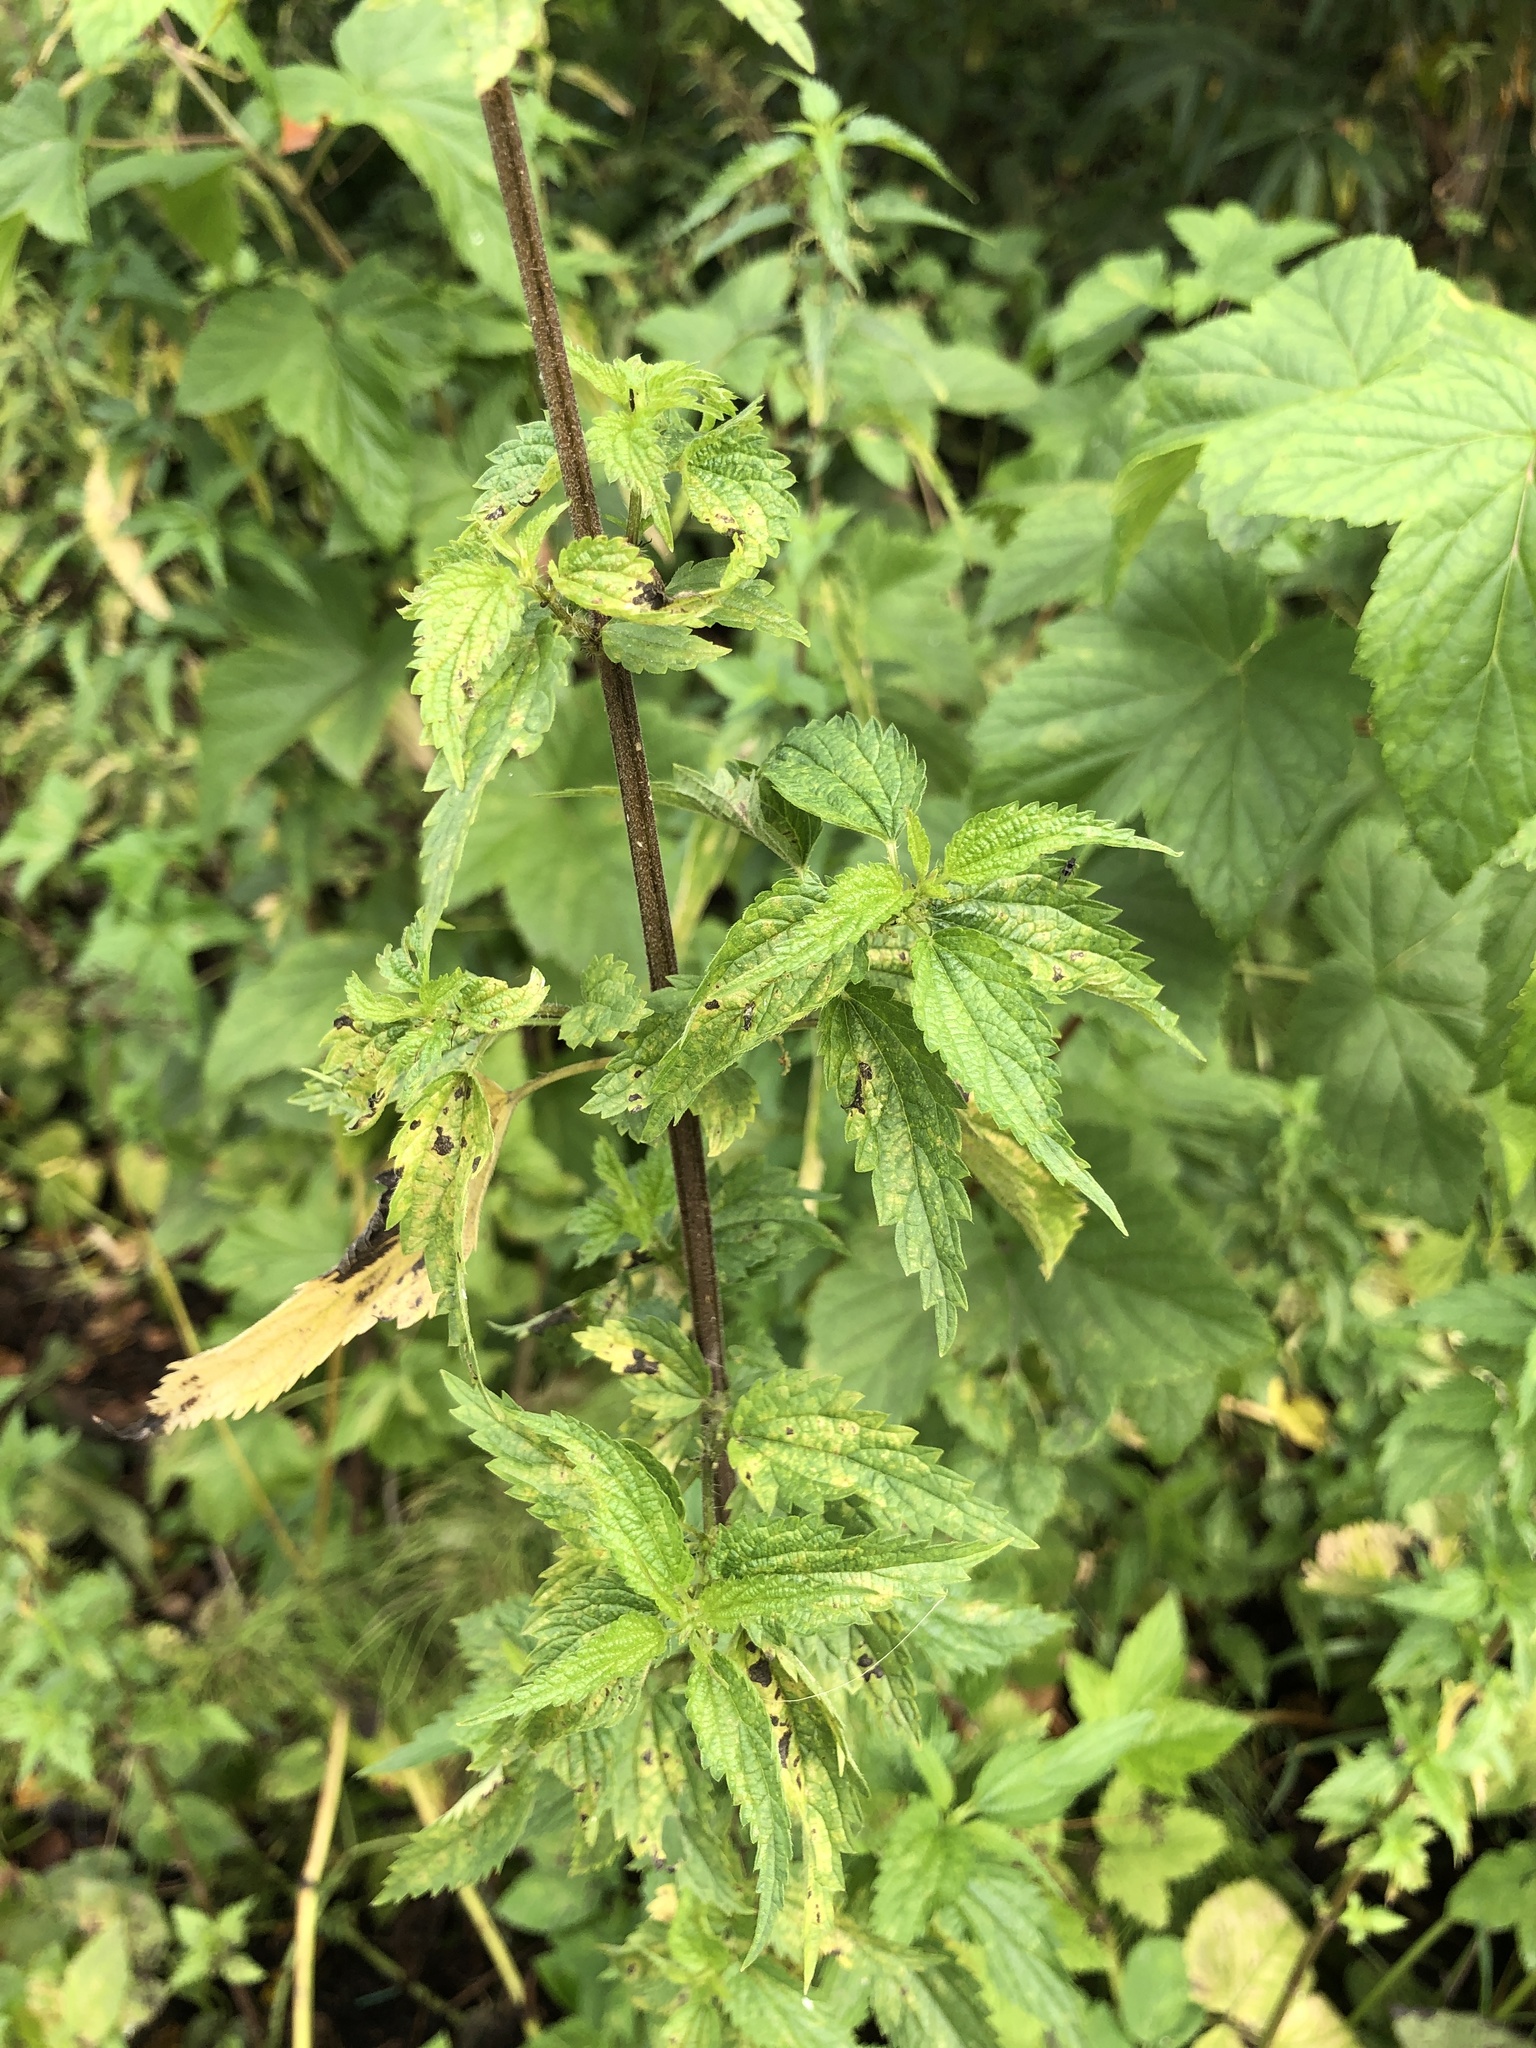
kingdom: Plantae
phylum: Tracheophyta
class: Magnoliopsida
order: Rosales
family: Urticaceae
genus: Urtica
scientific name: Urtica dioica
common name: Common nettle
